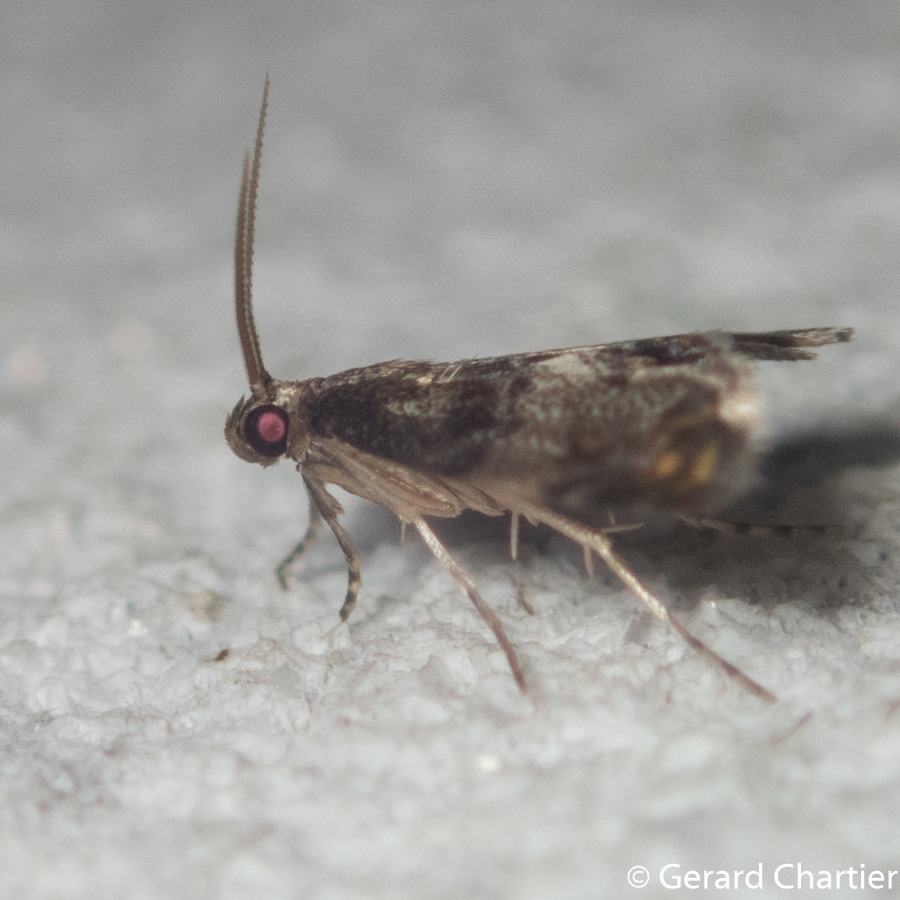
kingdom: Animalia
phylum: Arthropoda
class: Insecta
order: Lepidoptera
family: Crambidae
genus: Paracataclysta
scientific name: Paracataclysta fuscalis
